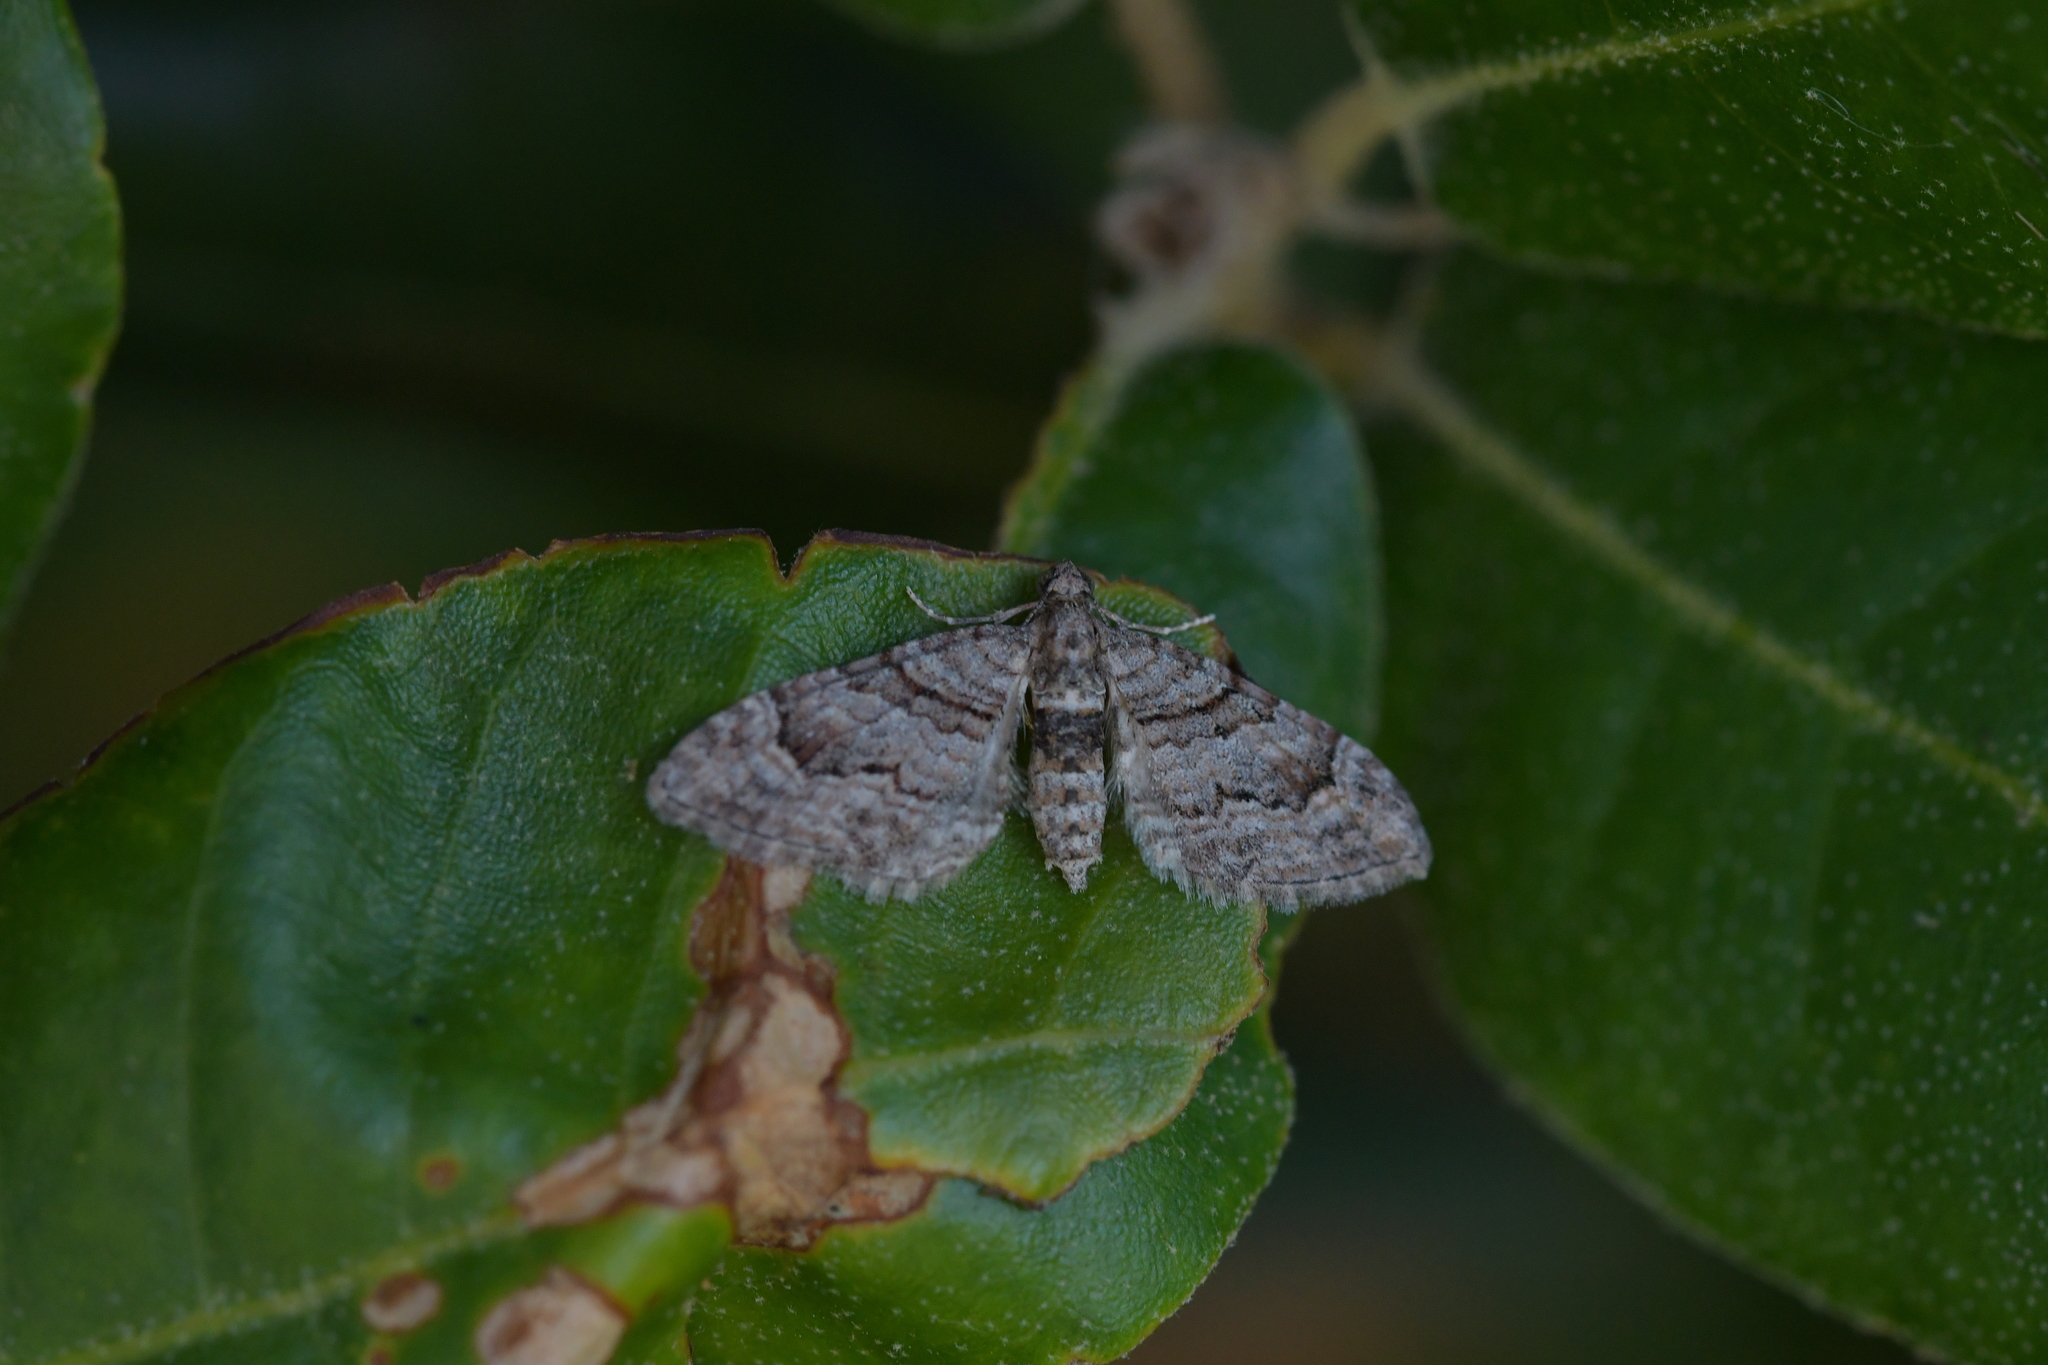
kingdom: Animalia
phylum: Arthropoda
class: Insecta
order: Lepidoptera
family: Geometridae
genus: Phrissogonus
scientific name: Phrissogonus laticostata
